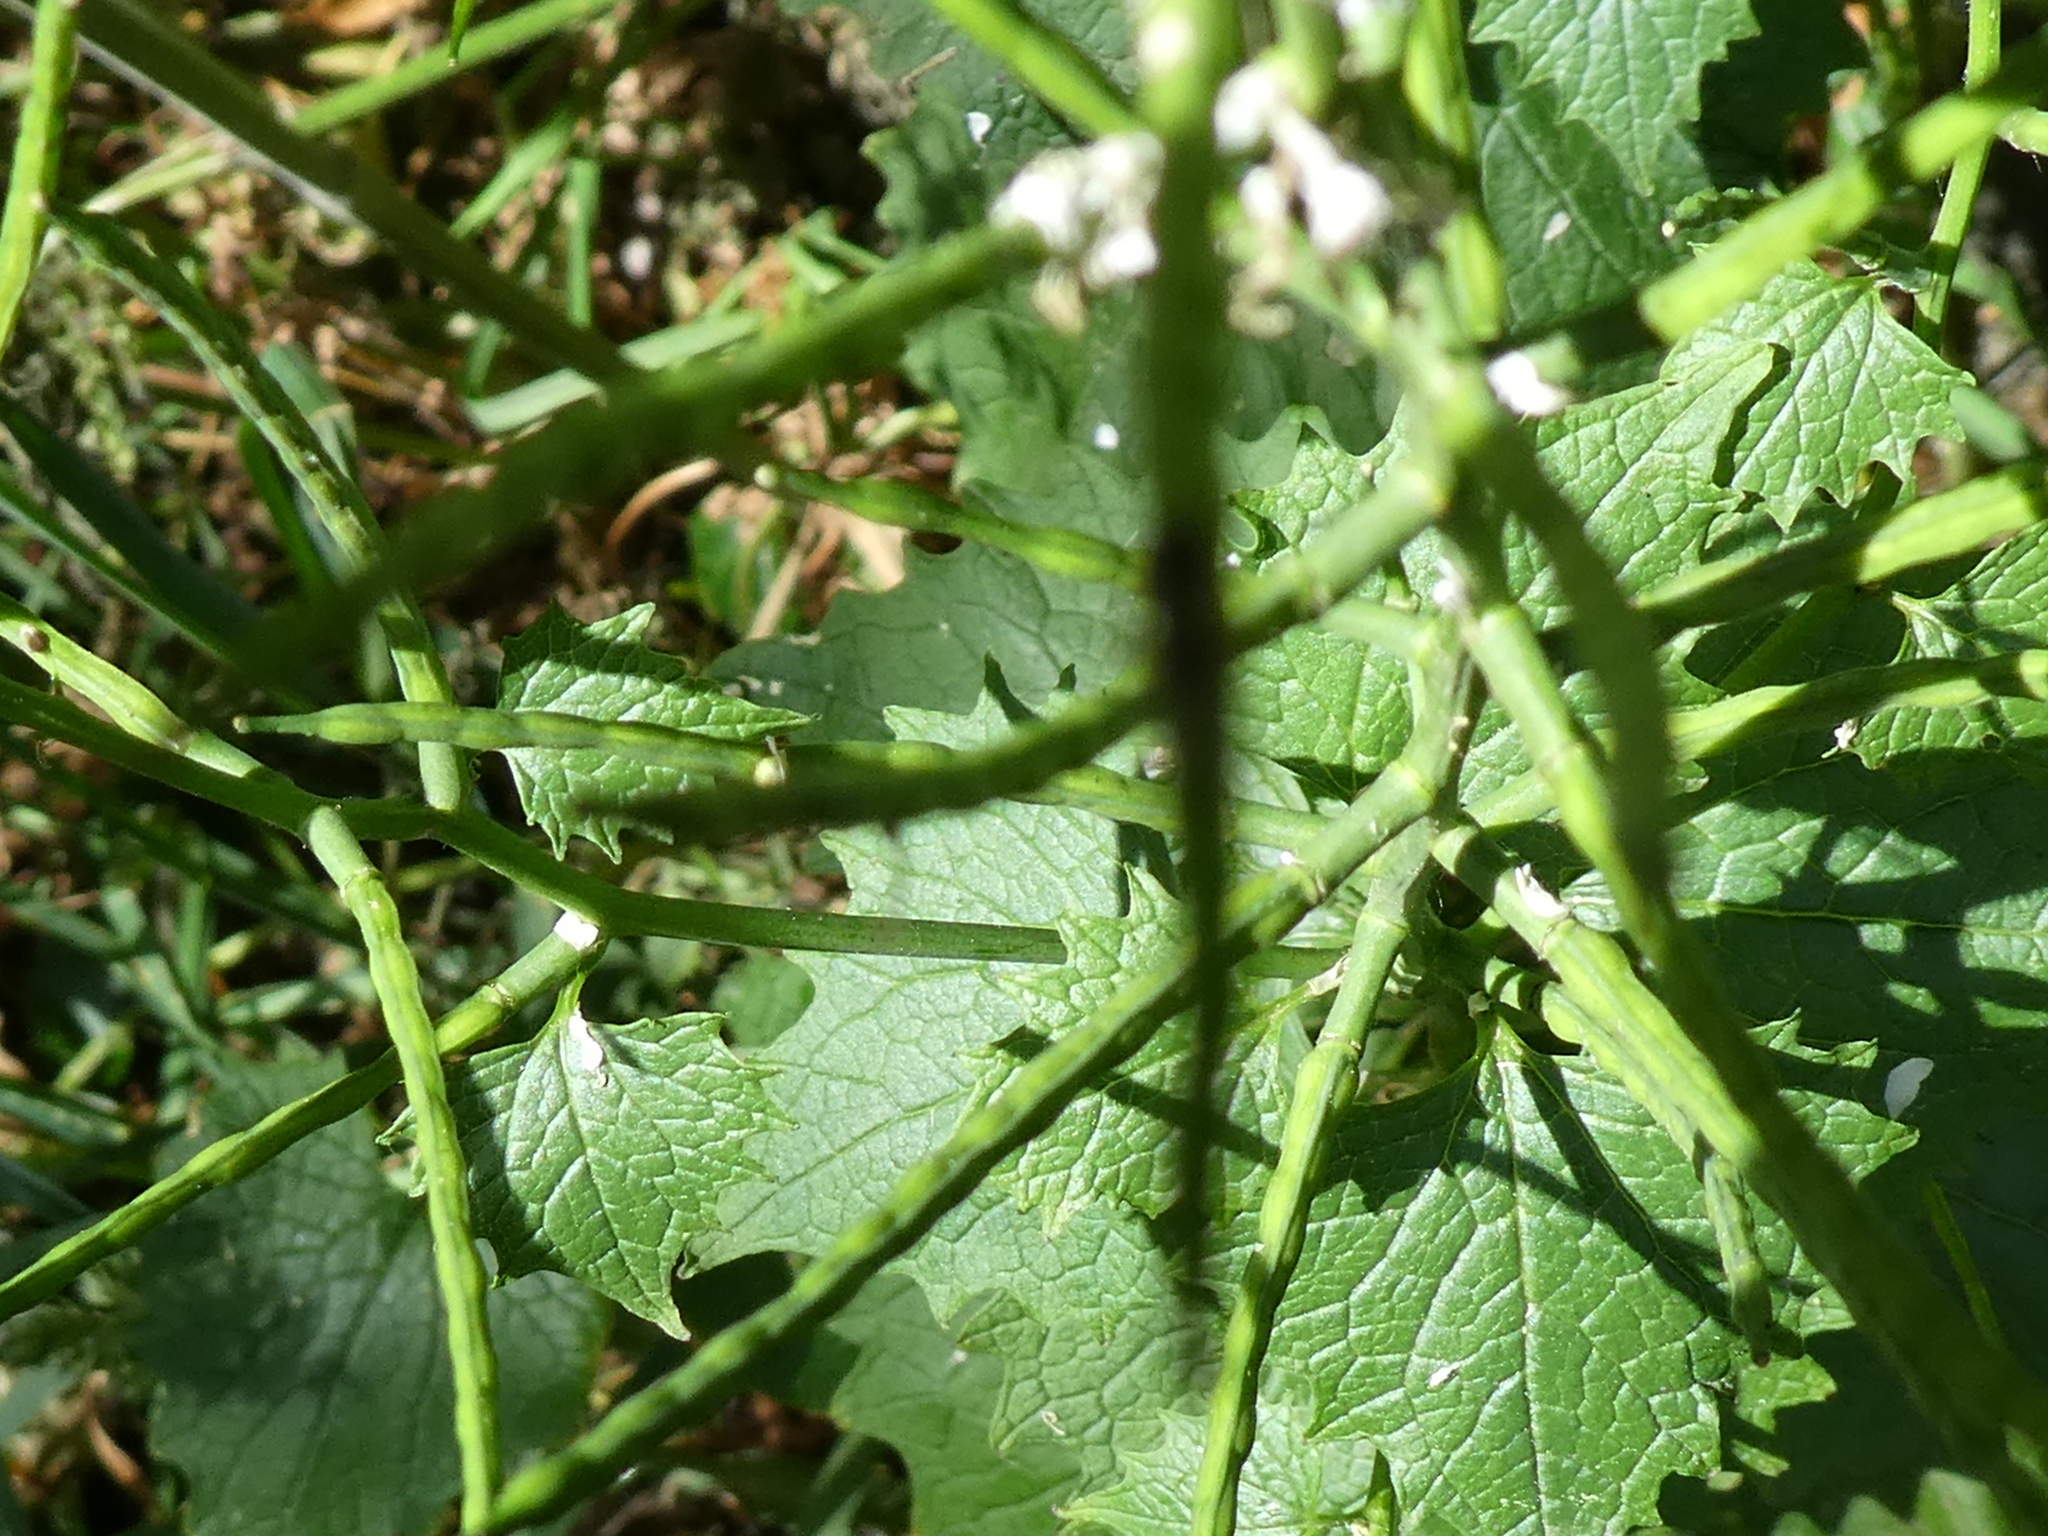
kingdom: Plantae
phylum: Tracheophyta
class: Magnoliopsida
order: Brassicales
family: Brassicaceae
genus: Alliaria
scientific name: Alliaria petiolata
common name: Garlic mustard
